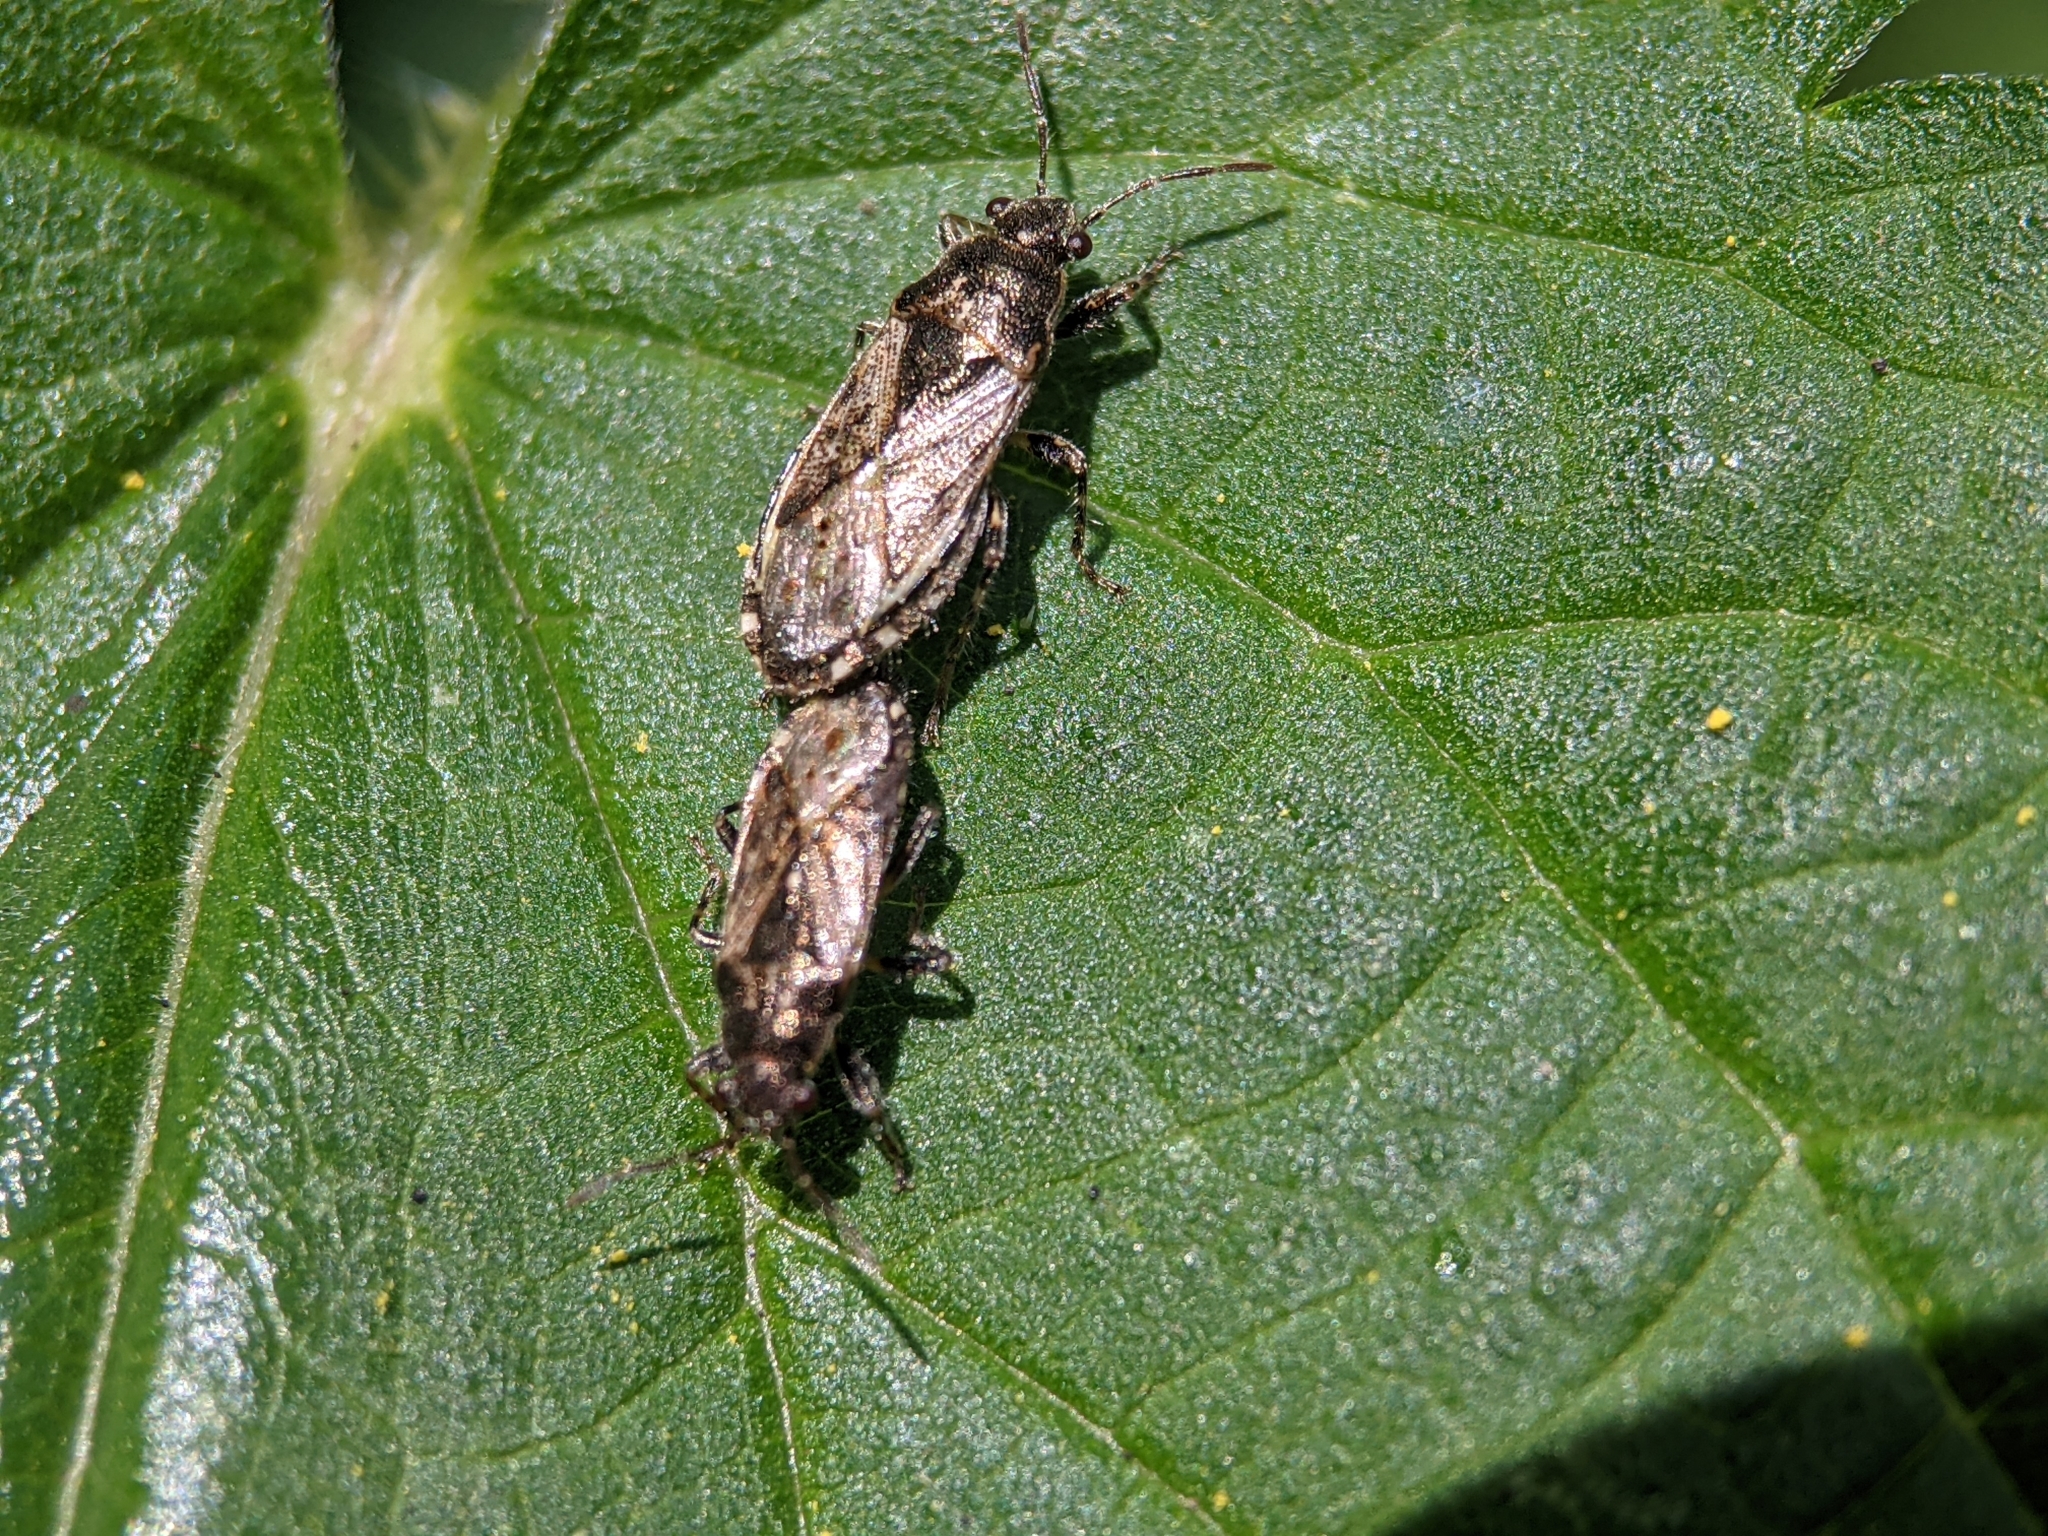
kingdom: Animalia
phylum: Arthropoda
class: Insecta
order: Hemiptera
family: Heterogastridae
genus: Heterogaster
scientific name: Heterogaster urticae
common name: Seed bug
